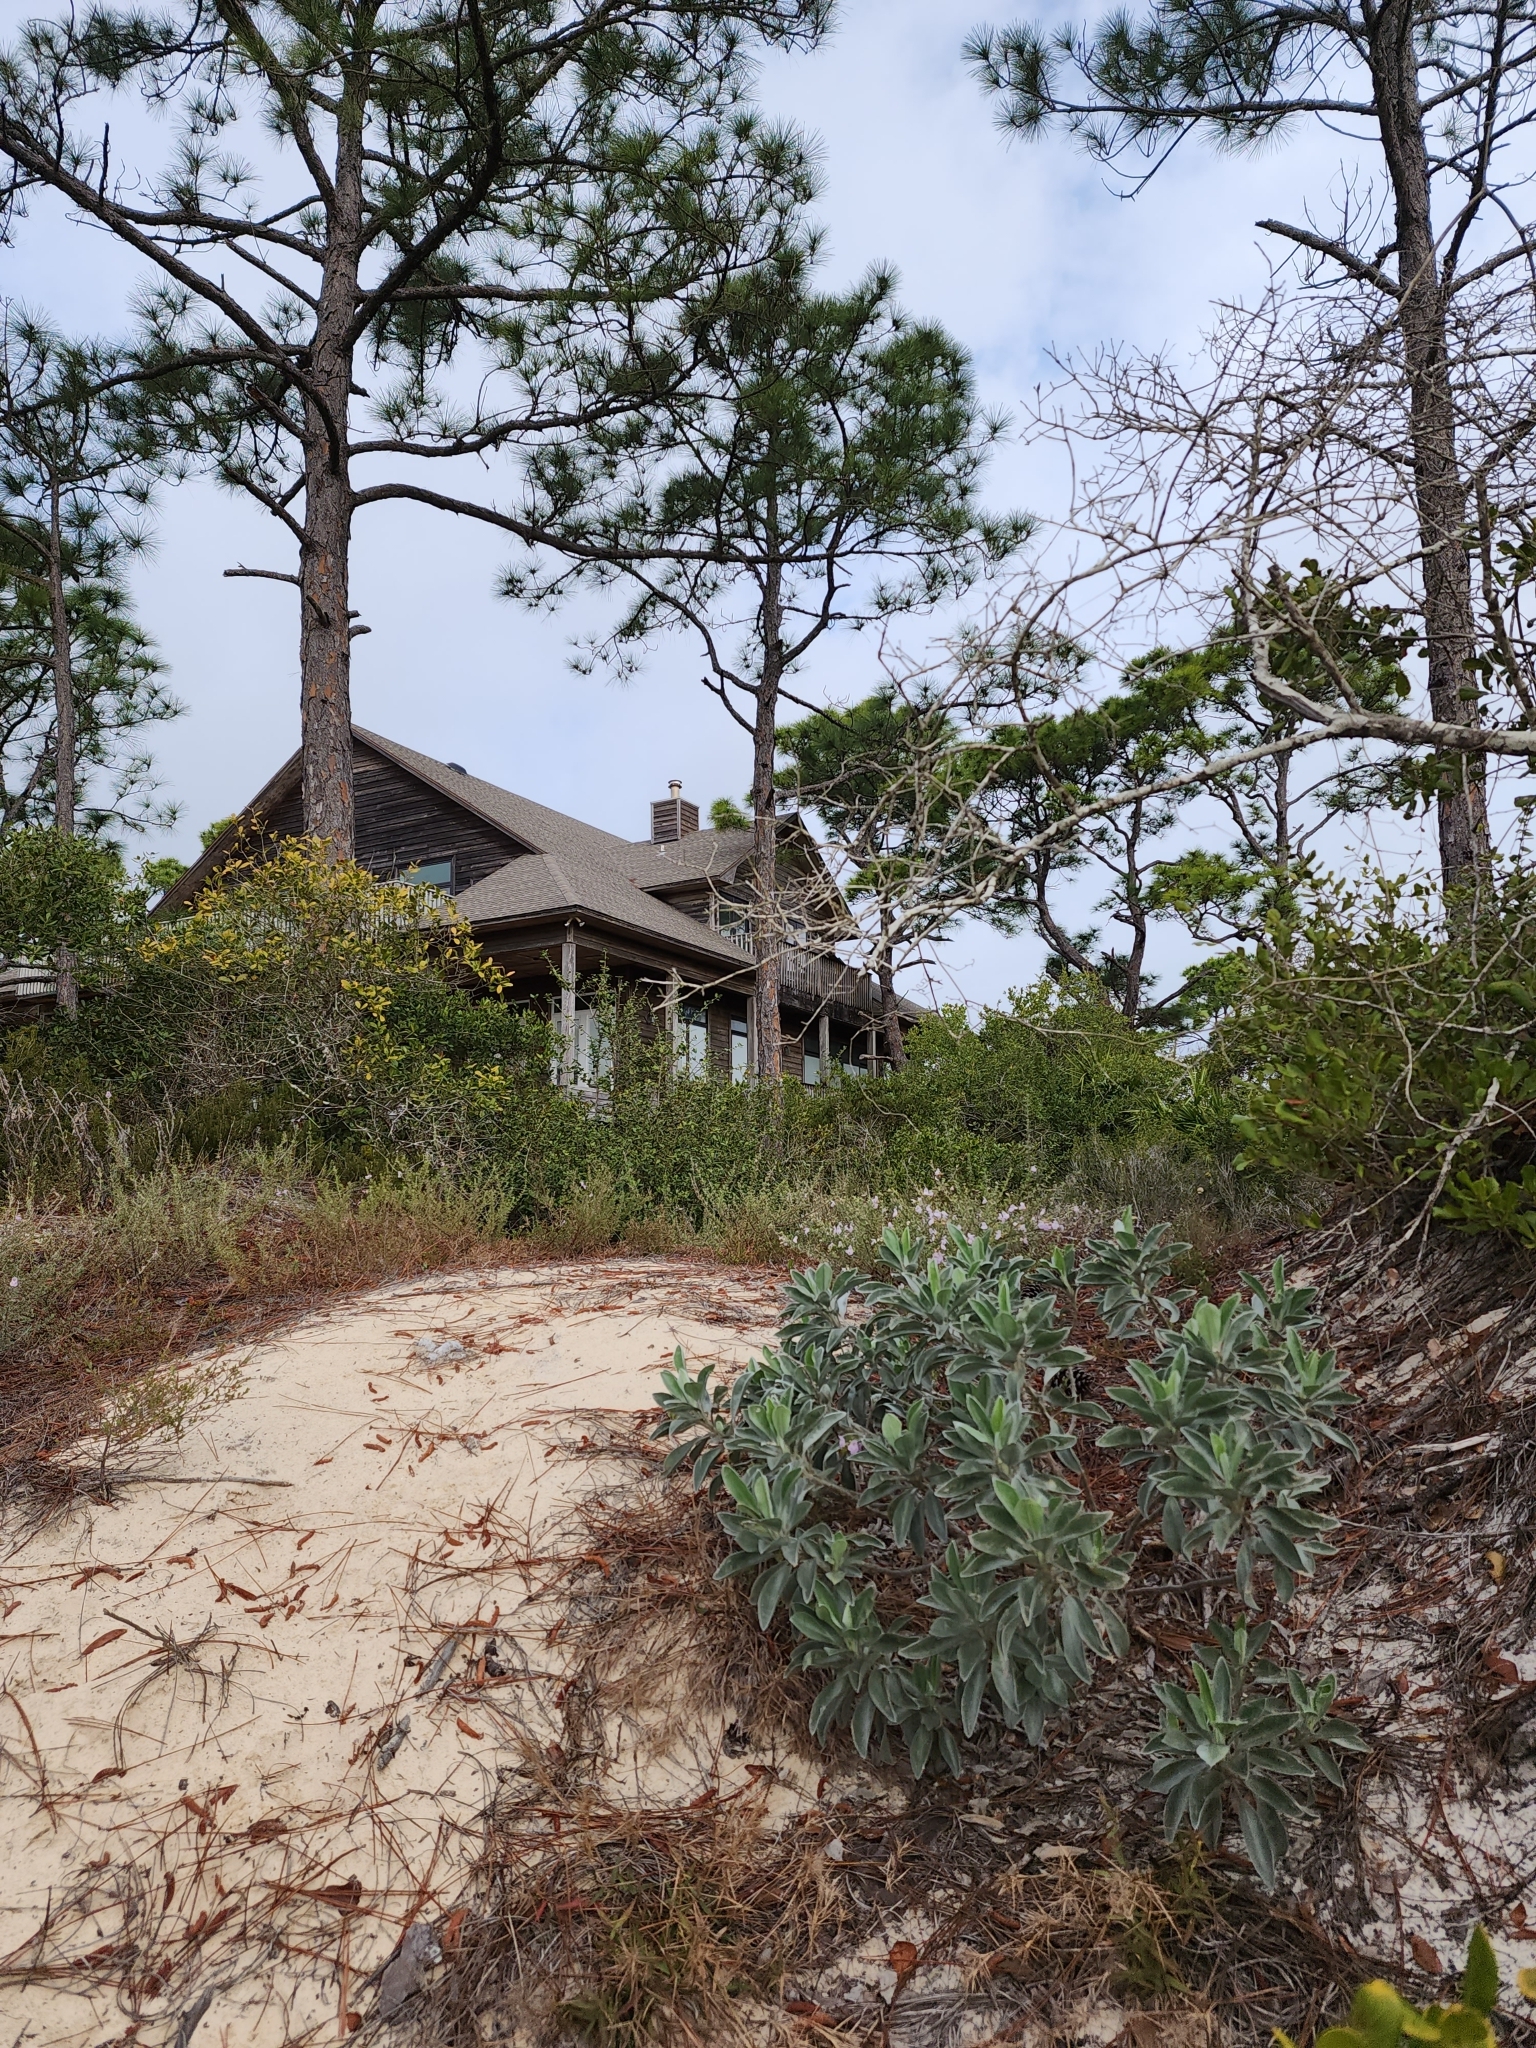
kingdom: Plantae
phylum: Tracheophyta
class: Magnoliopsida
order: Fabales
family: Fabaceae
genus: Lupinus
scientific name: Lupinus westianus
